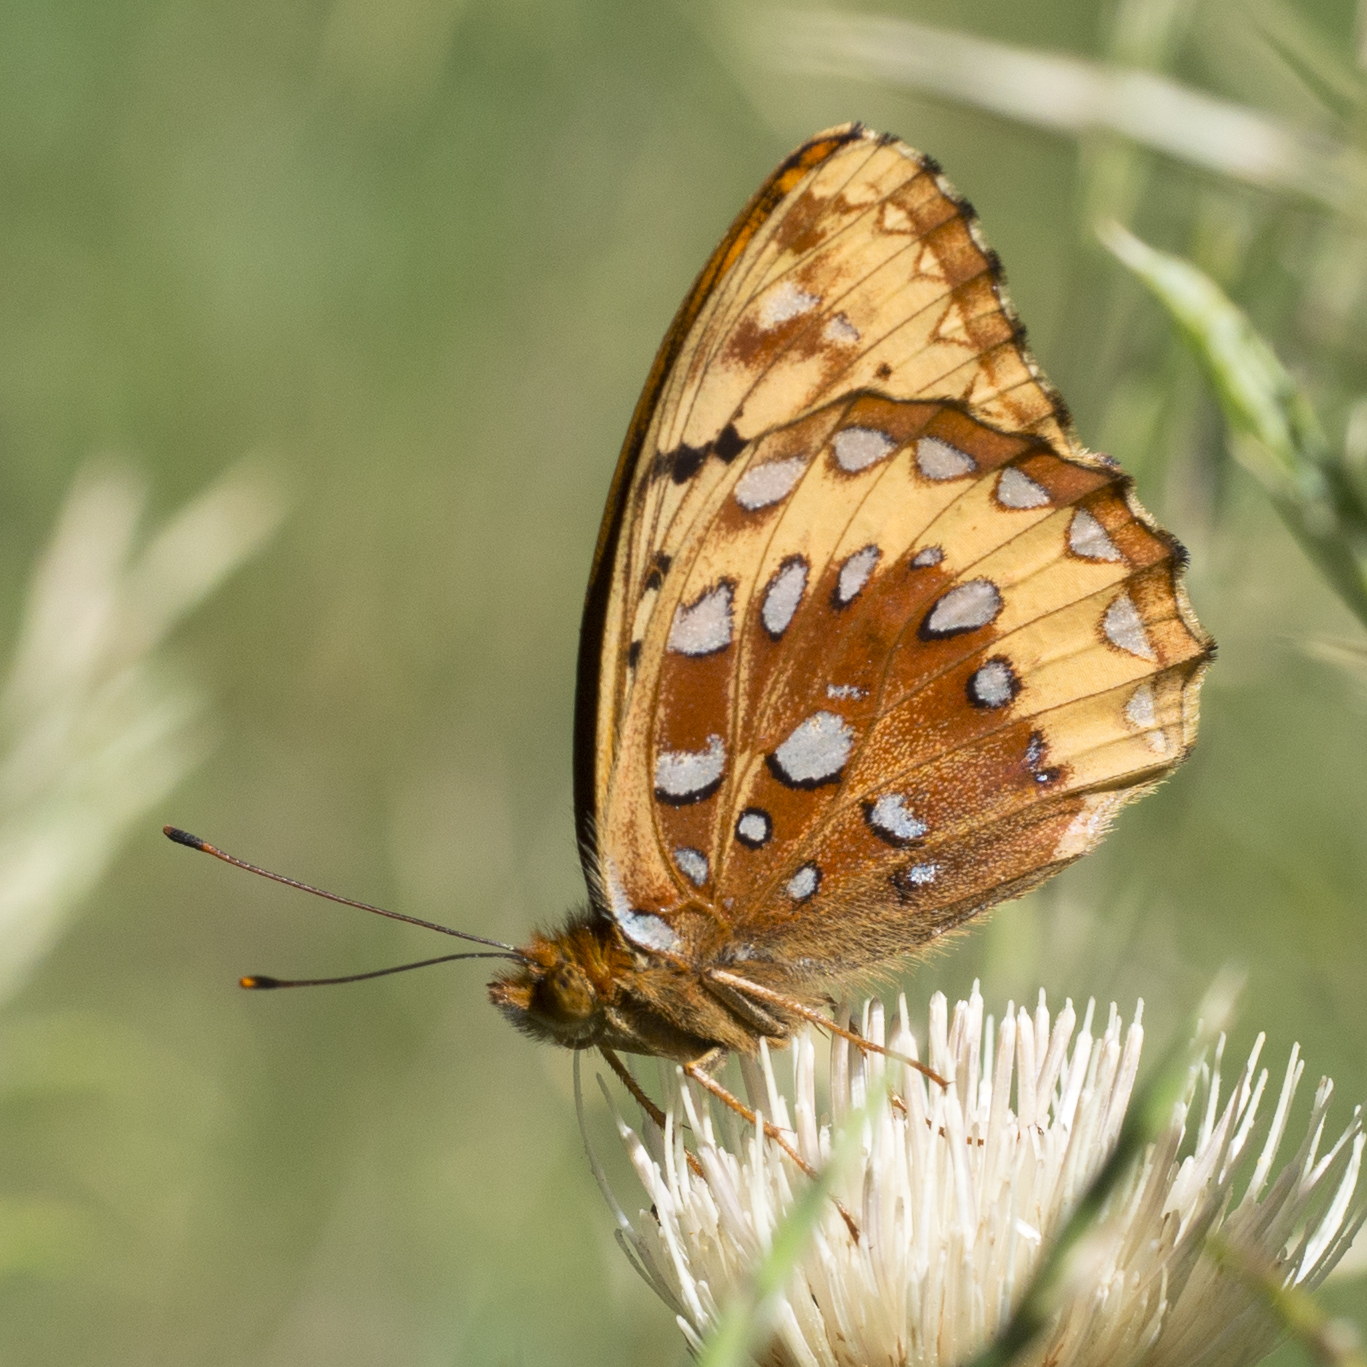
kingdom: Animalia
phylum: Arthropoda
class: Insecta
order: Lepidoptera
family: Nymphalidae
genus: Speyeria
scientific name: Speyeria cybele
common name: Great spangled fritillary
